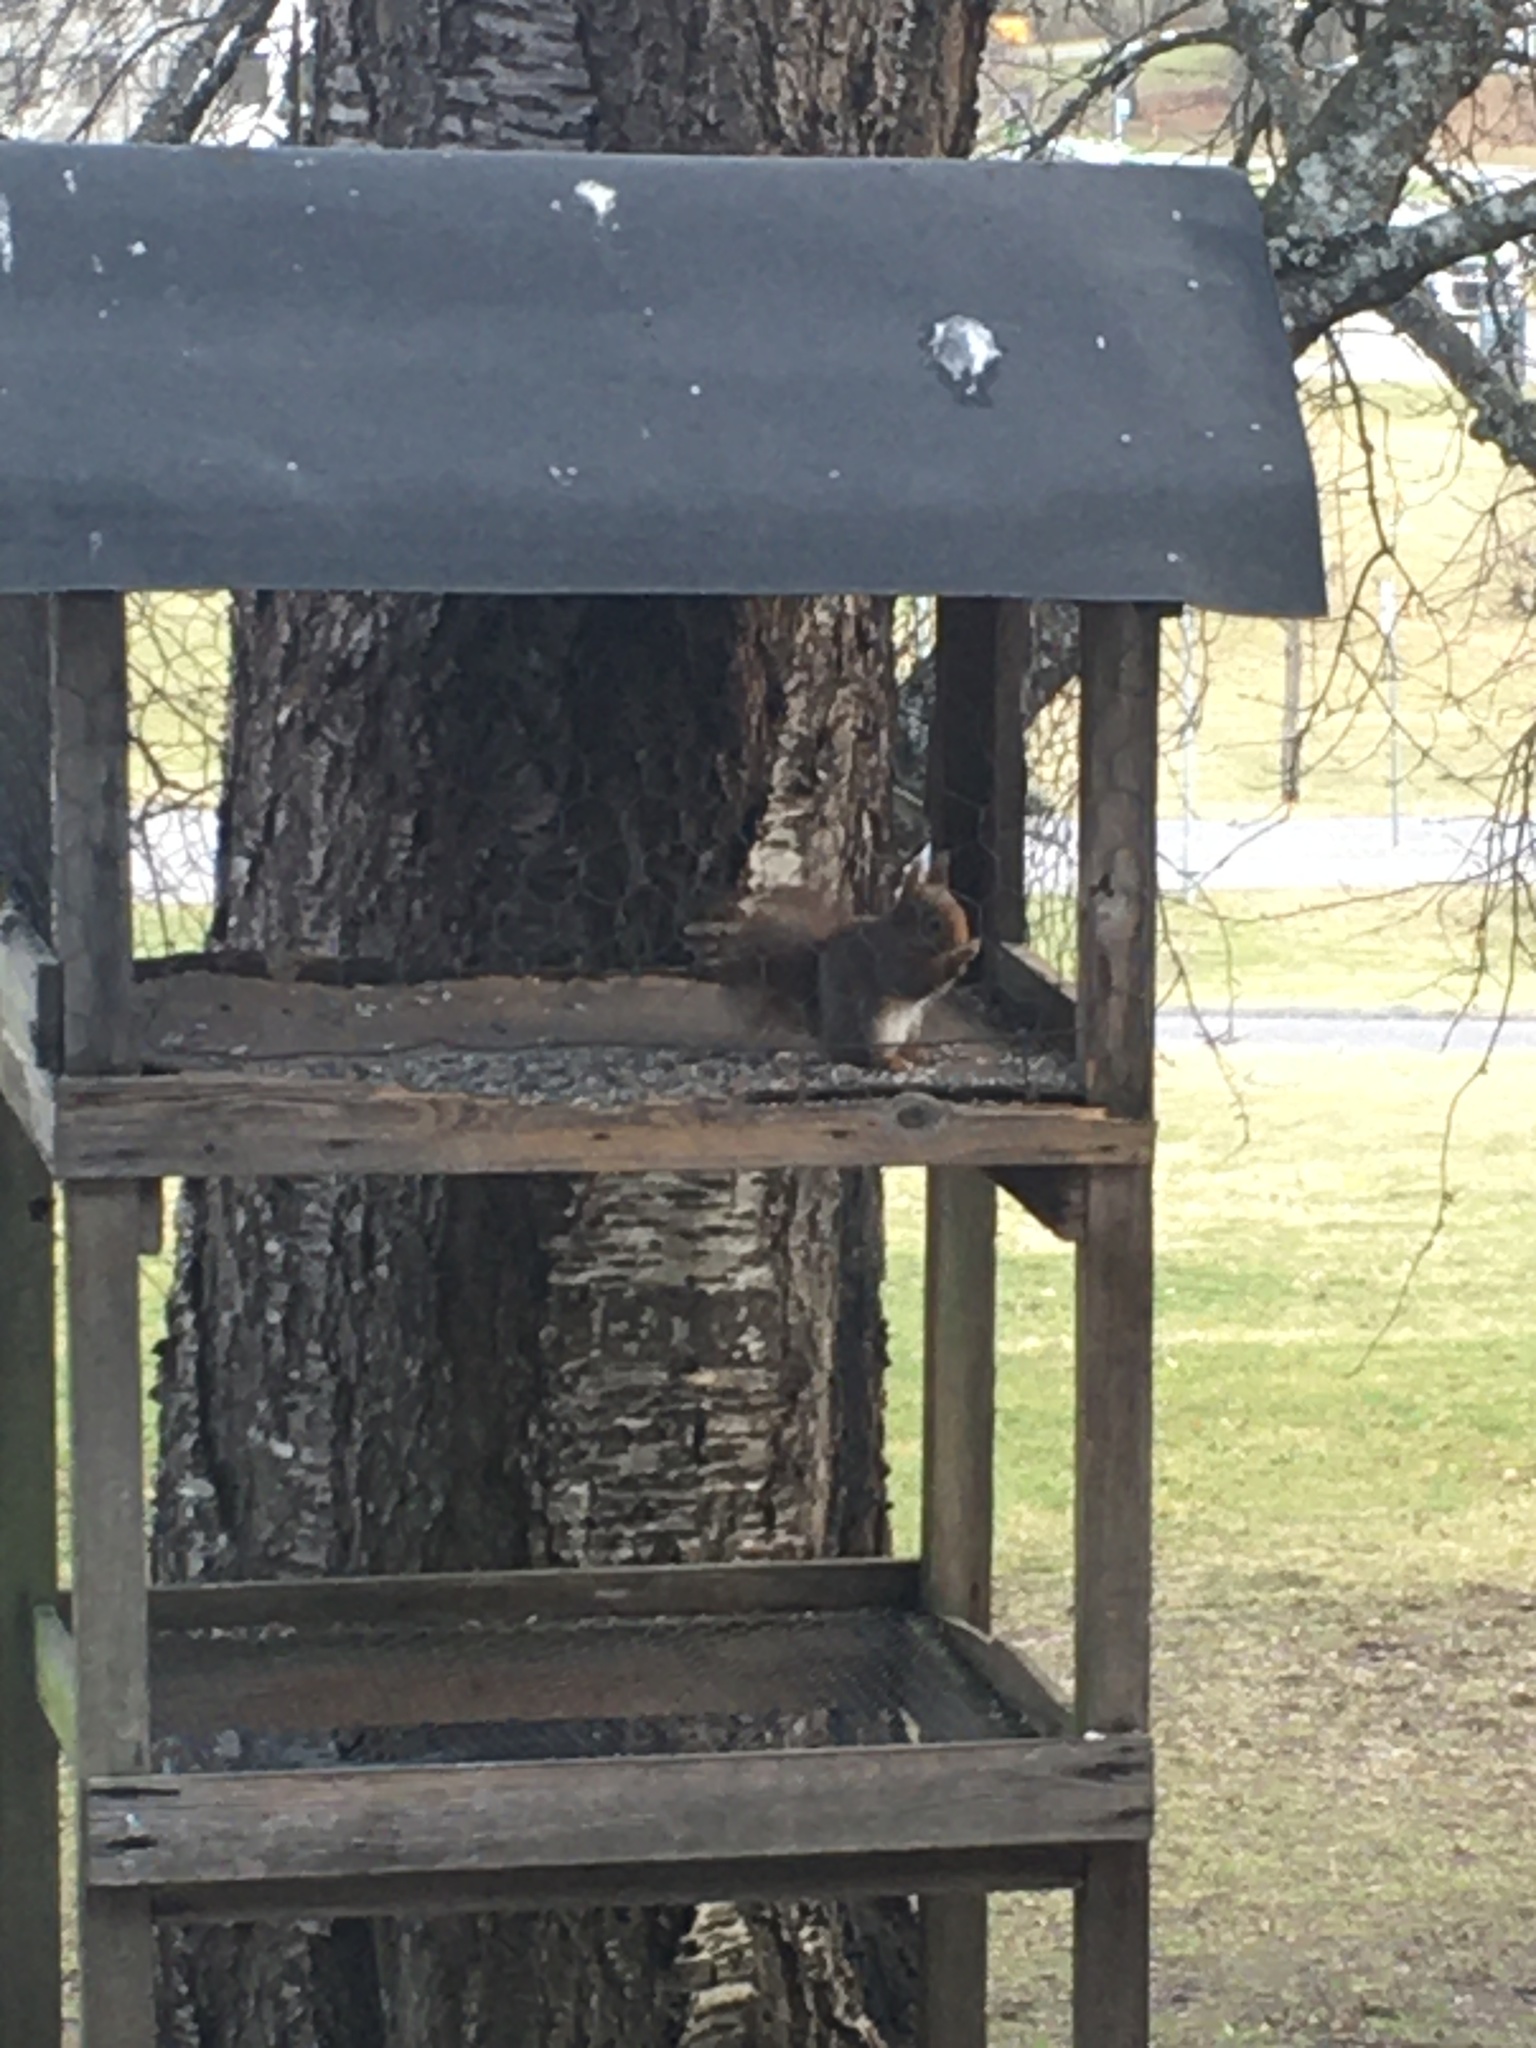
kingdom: Animalia
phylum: Chordata
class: Mammalia
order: Rodentia
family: Sciuridae
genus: Sciurus
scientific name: Sciurus vulgaris
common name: Eurasian red squirrel
